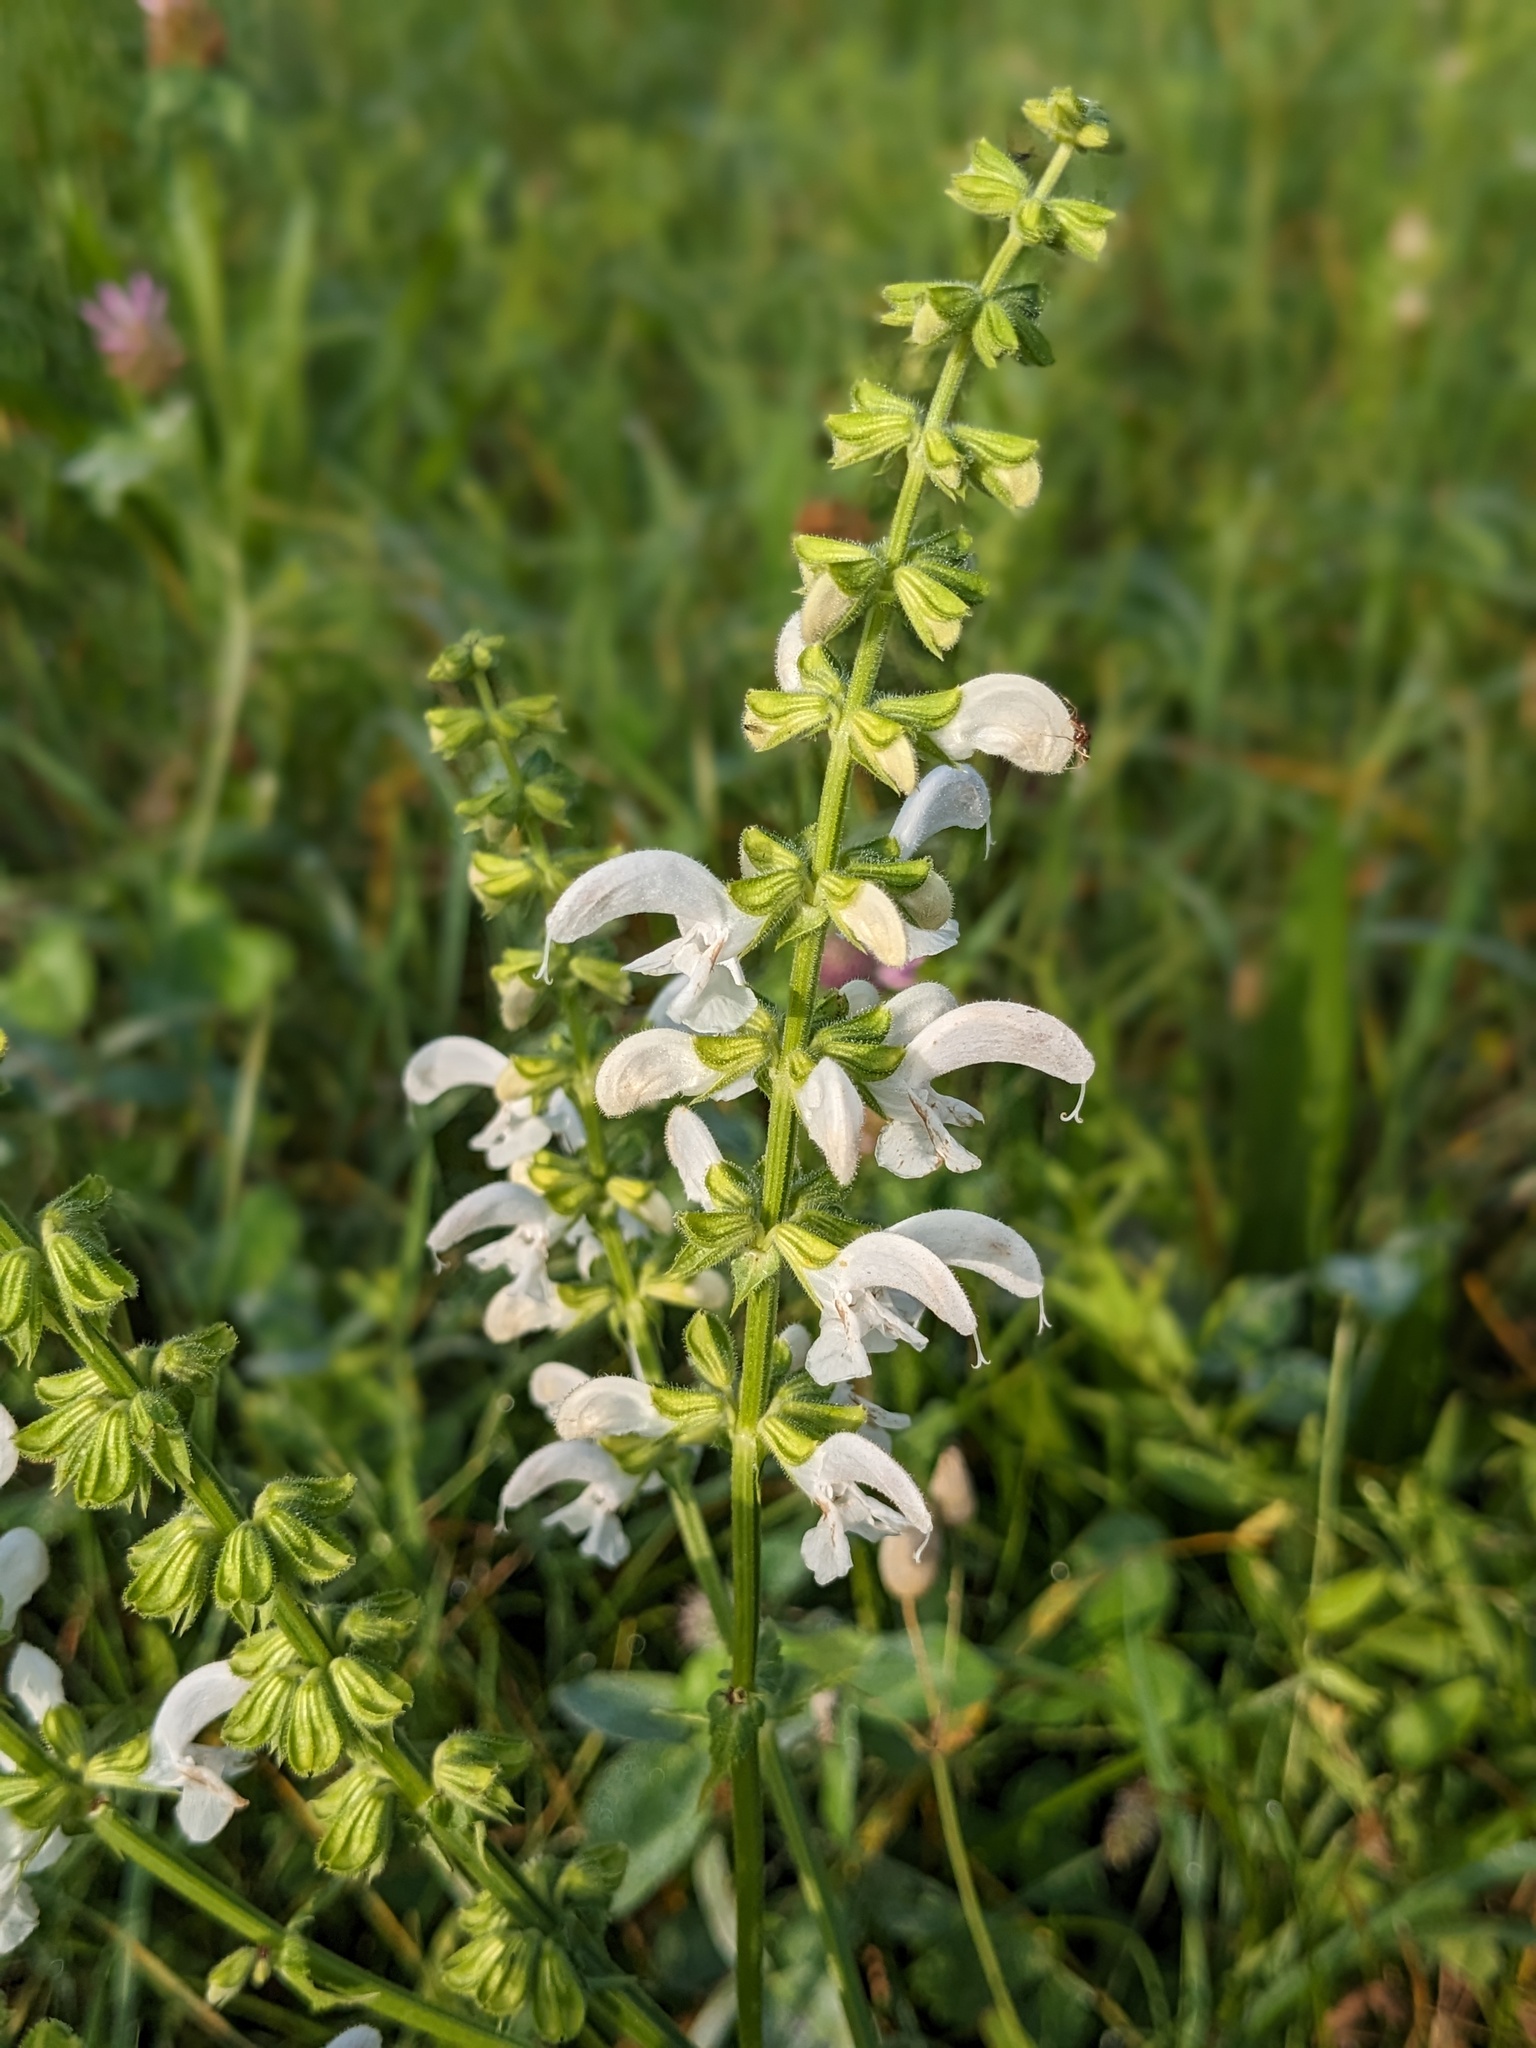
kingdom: Plantae
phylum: Tracheophyta
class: Magnoliopsida
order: Lamiales
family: Lamiaceae
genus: Salvia
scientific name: Salvia pratensis
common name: Meadow sage
